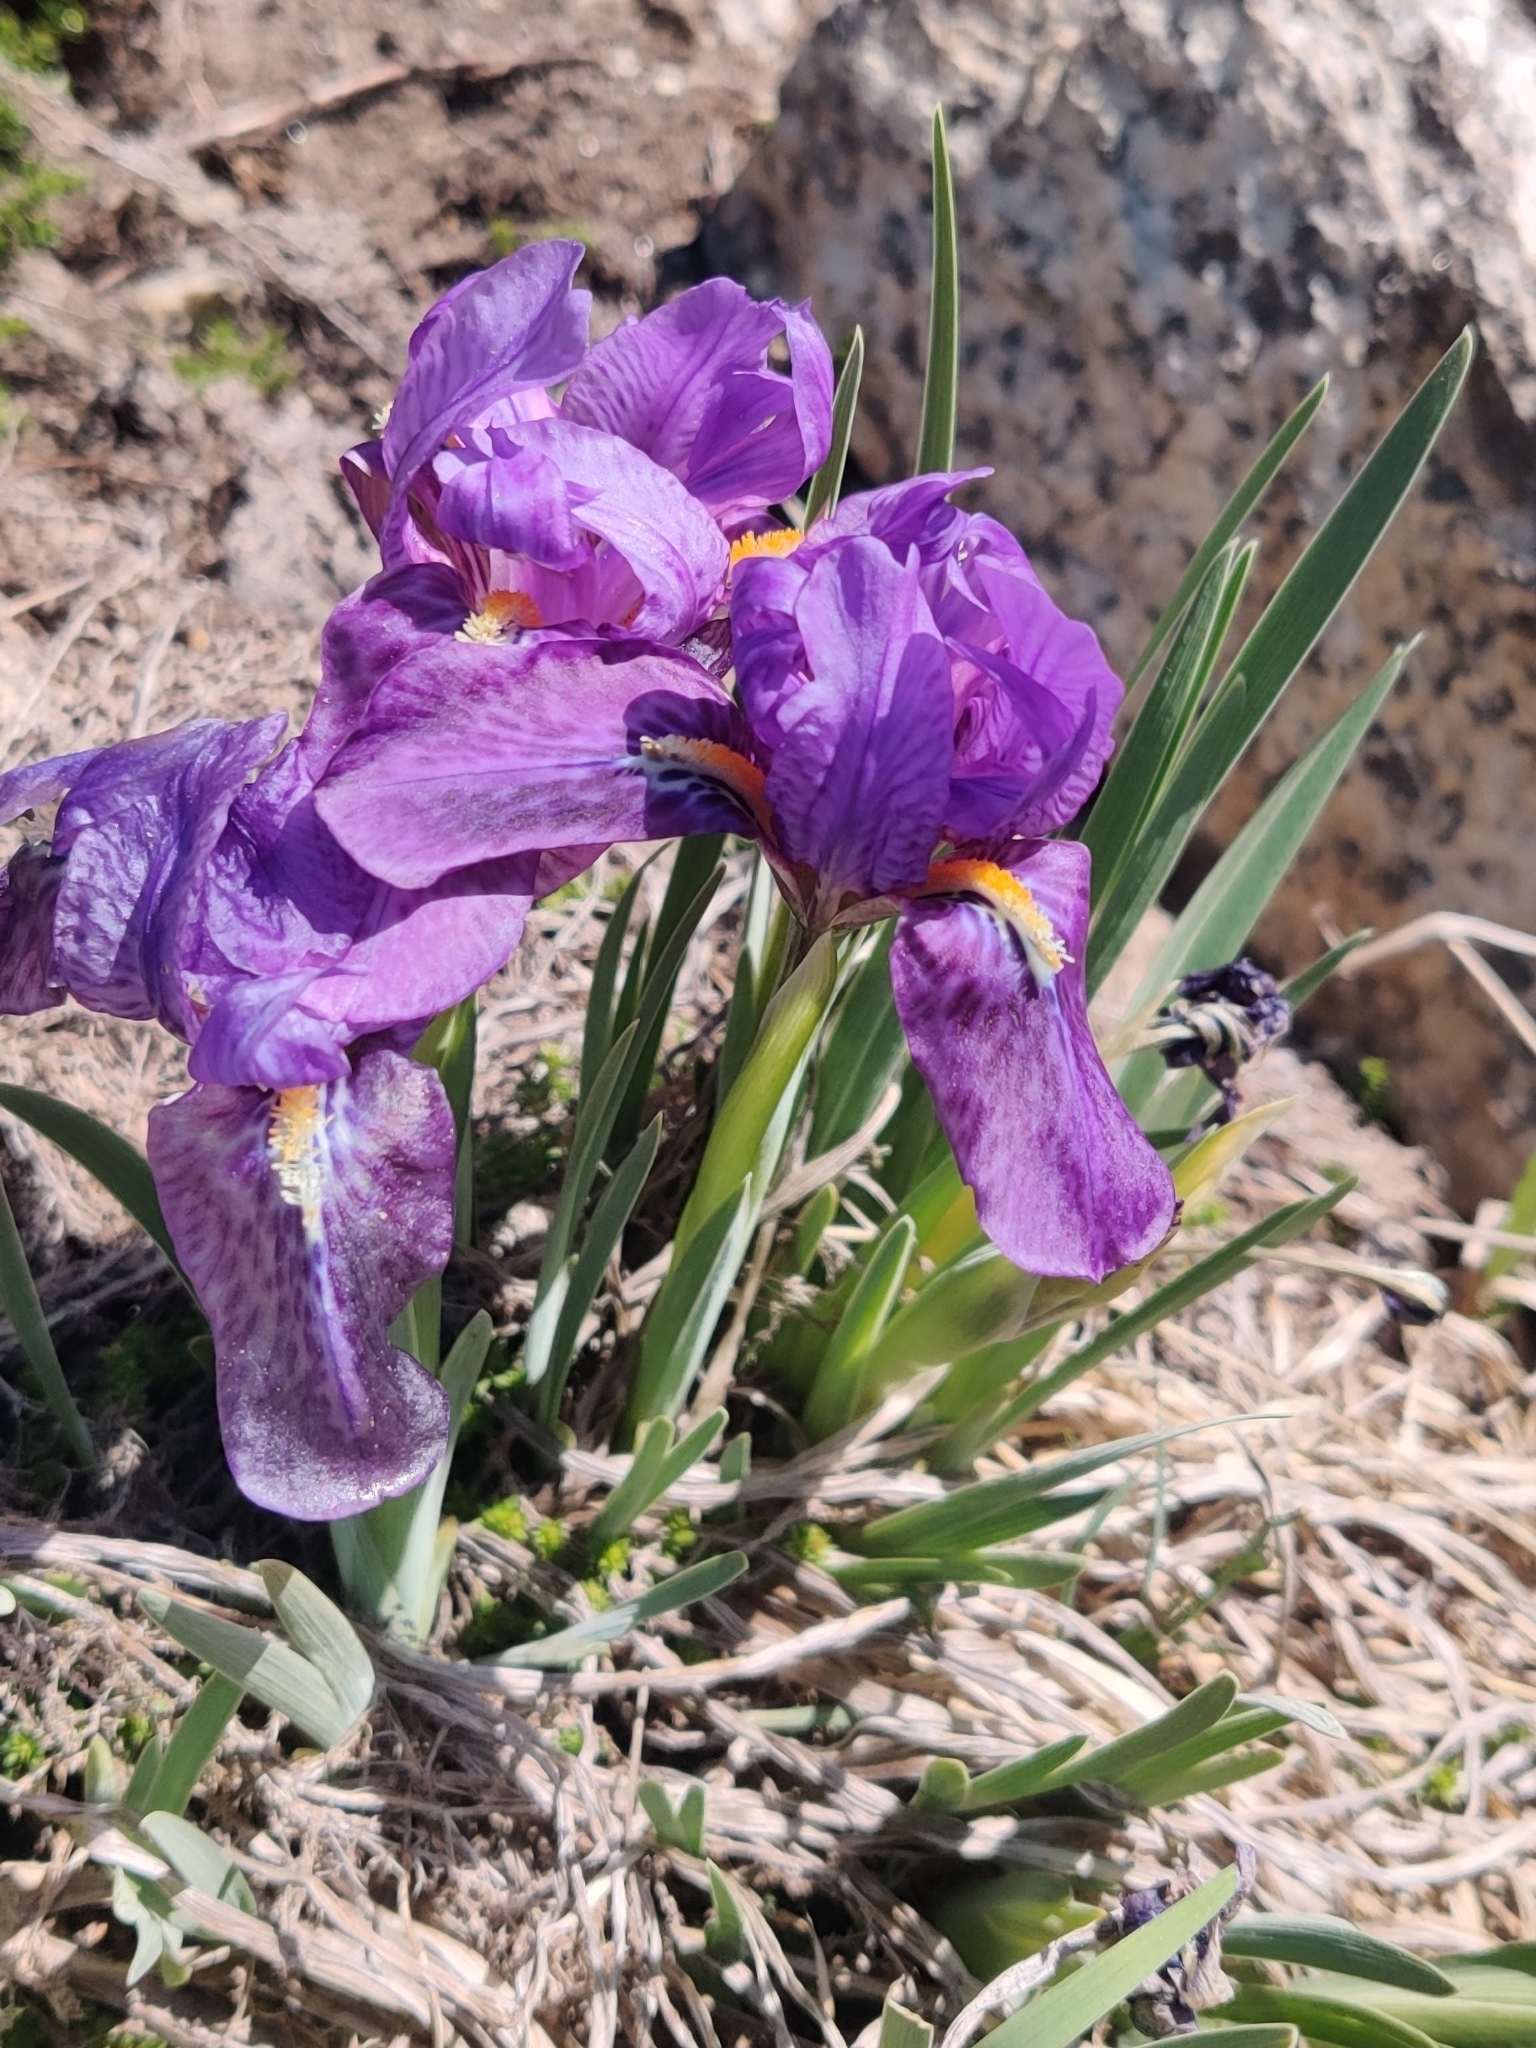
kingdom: Plantae
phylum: Tracheophyta
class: Liliopsida
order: Asparagales
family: Iridaceae
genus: Iris
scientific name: Iris kemaonensis
